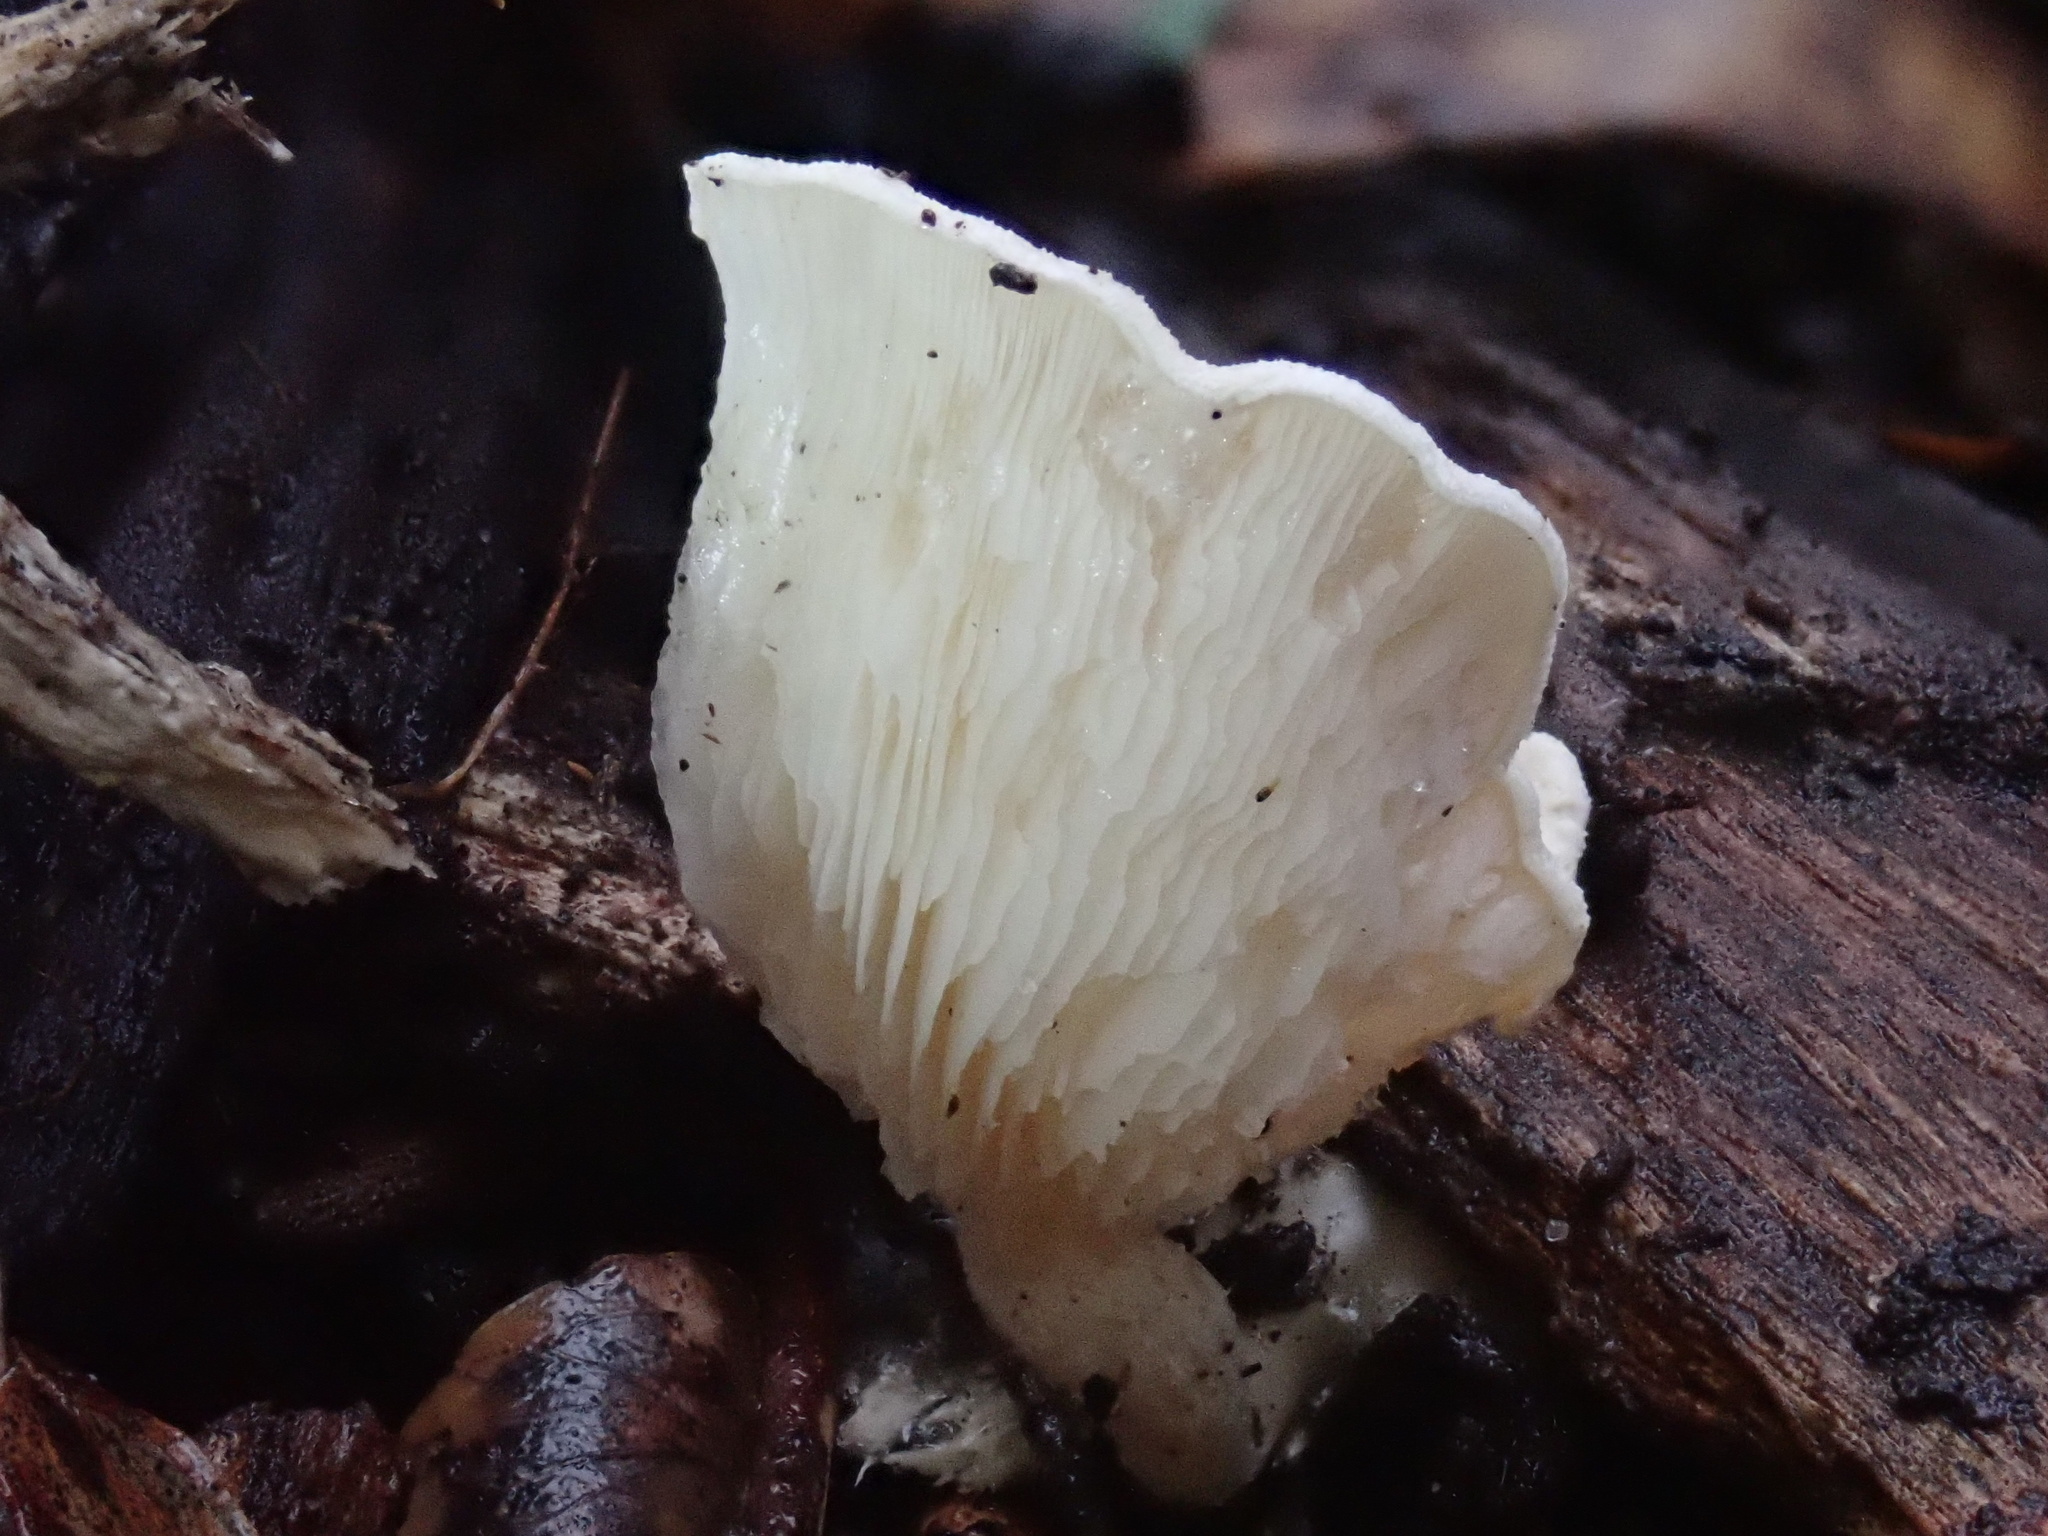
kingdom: Fungi
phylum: Basidiomycota
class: Agaricomycetes
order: Agaricales
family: Lyophyllaceae
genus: Ossicaulis
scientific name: Ossicaulis
